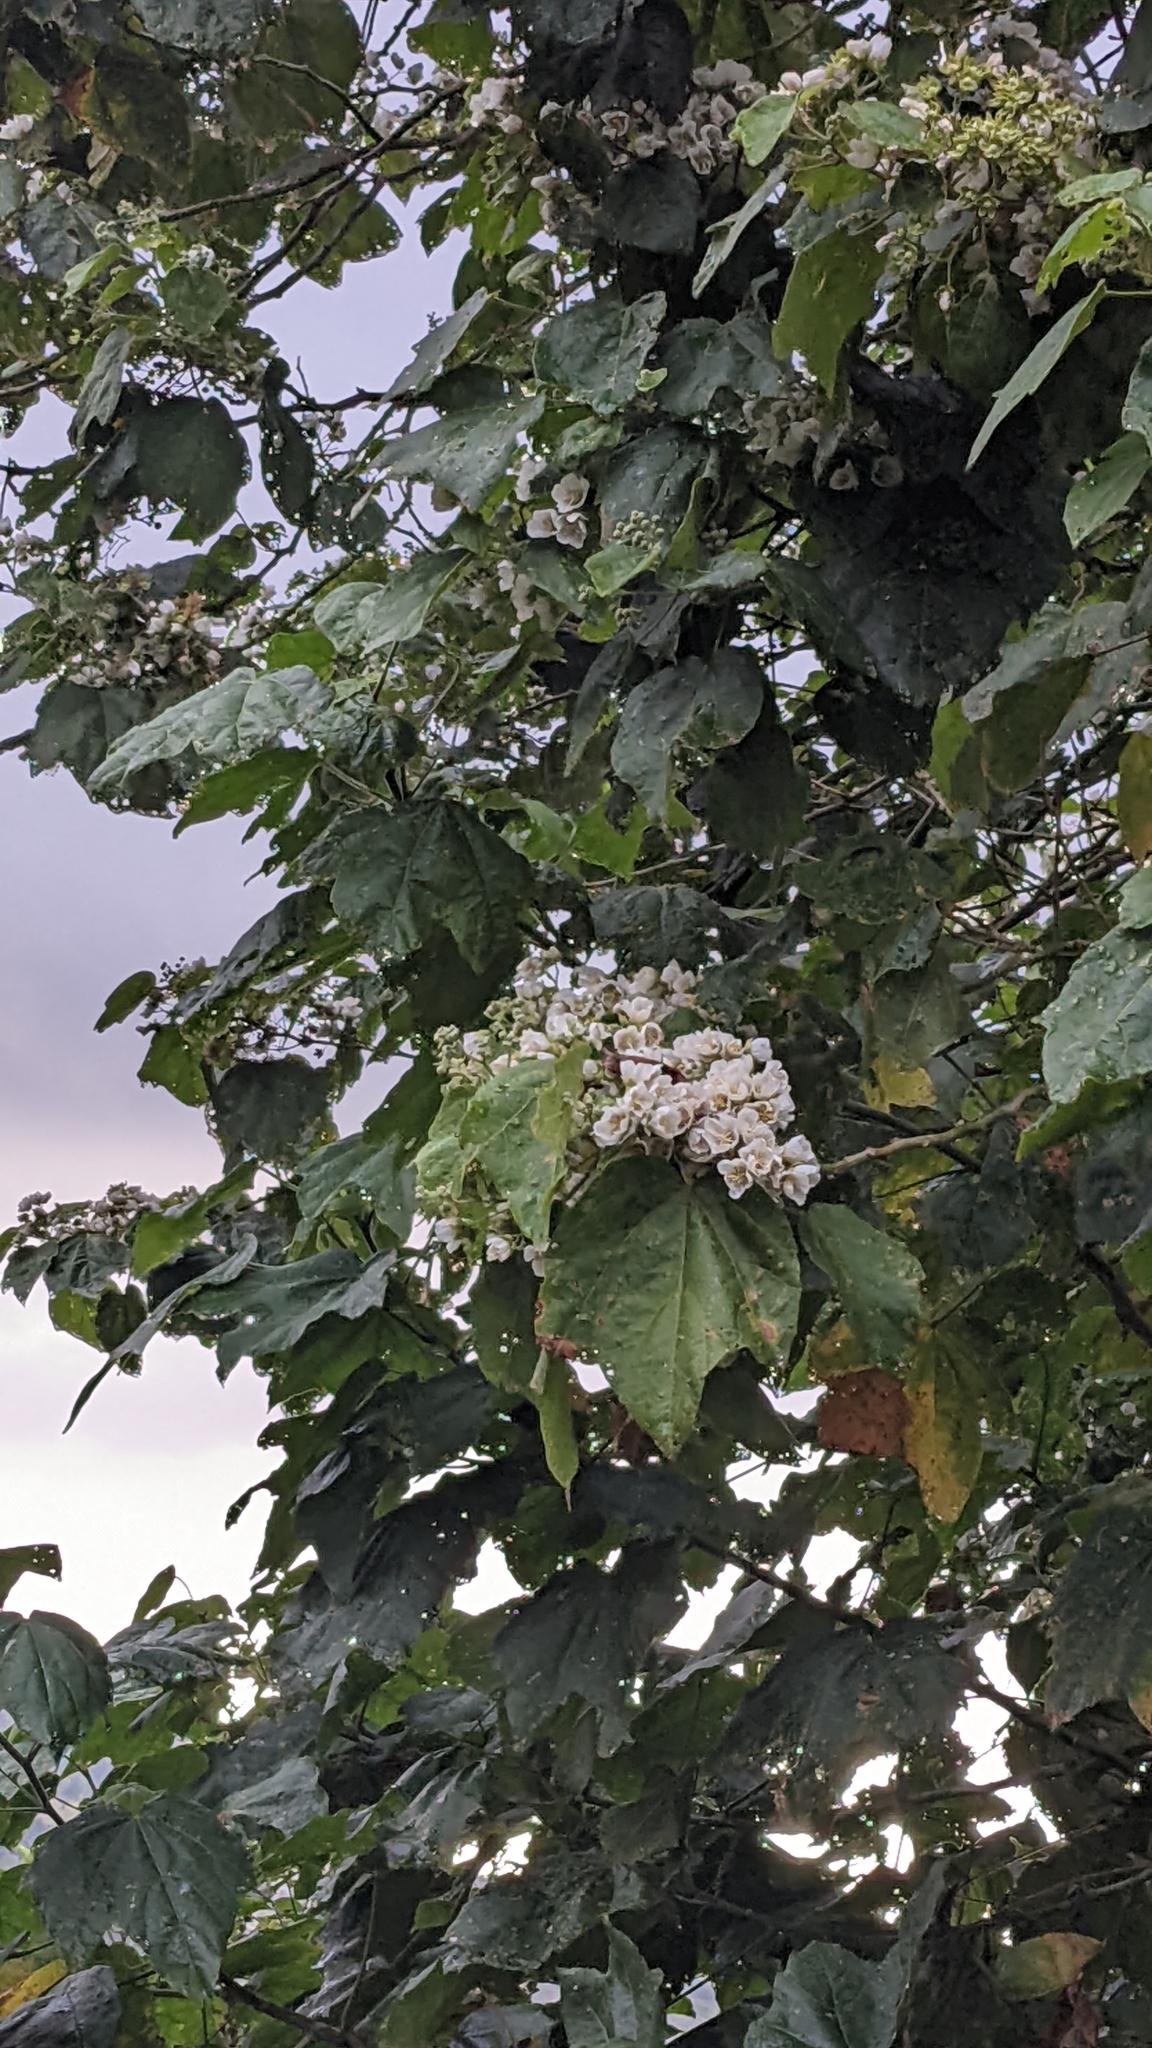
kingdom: Plantae
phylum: Tracheophyta
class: Magnoliopsida
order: Malvales
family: Malvaceae
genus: Robinsonella
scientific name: Robinsonella lindeniana
